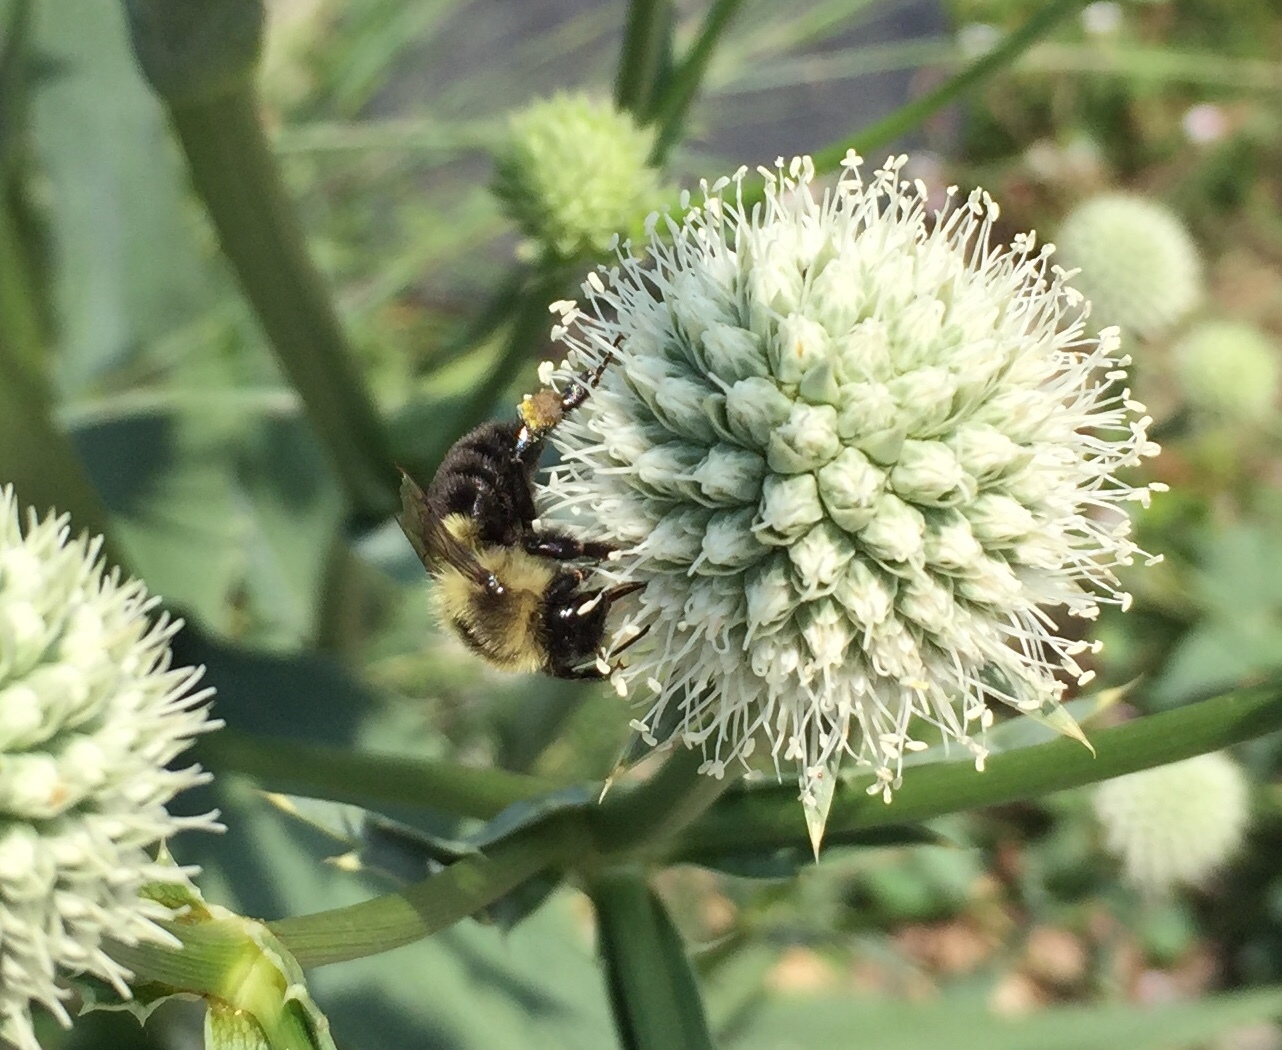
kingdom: Animalia
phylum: Arthropoda
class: Insecta
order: Hymenoptera
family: Apidae
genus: Bombus
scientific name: Bombus impatiens
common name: Common eastern bumble bee
